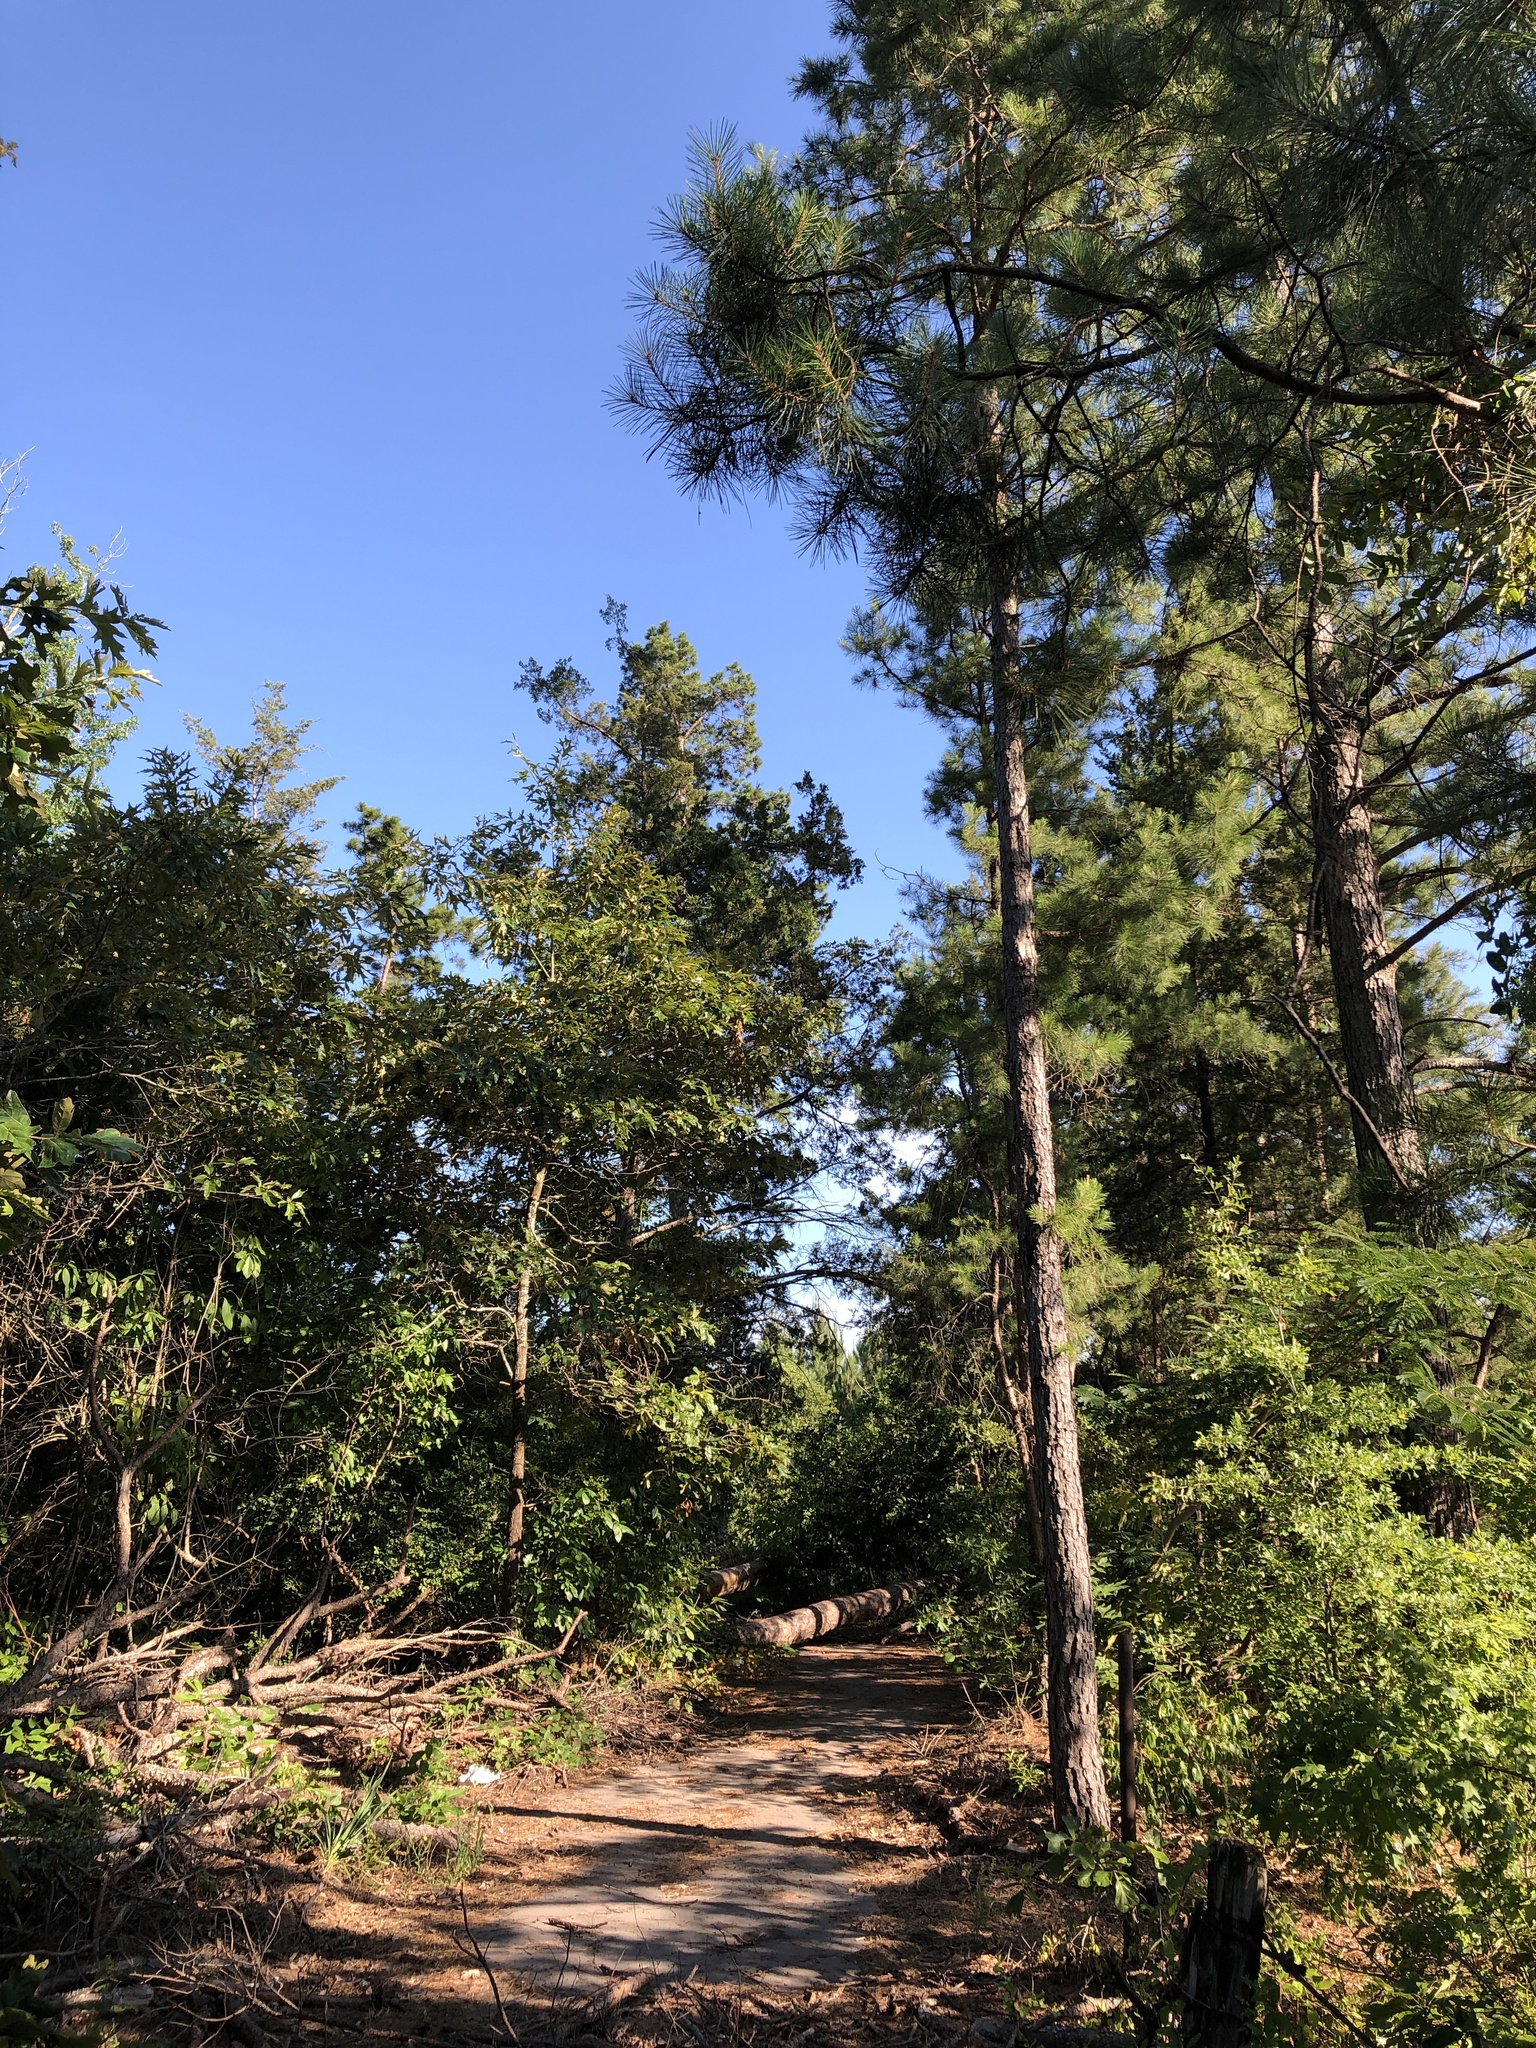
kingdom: Animalia
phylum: Chordata
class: Aves
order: Passeriformes
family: Cardinalidae
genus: Cardinalis
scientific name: Cardinalis cardinalis
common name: Northern cardinal
